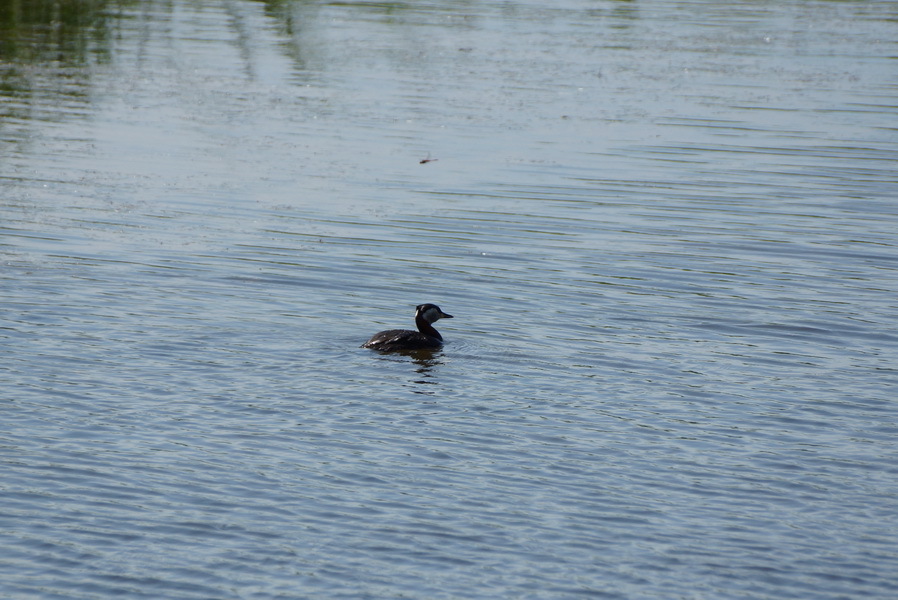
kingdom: Animalia
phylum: Chordata
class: Aves
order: Podicipediformes
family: Podicipedidae
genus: Podiceps
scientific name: Podiceps grisegena
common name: Red-necked grebe
